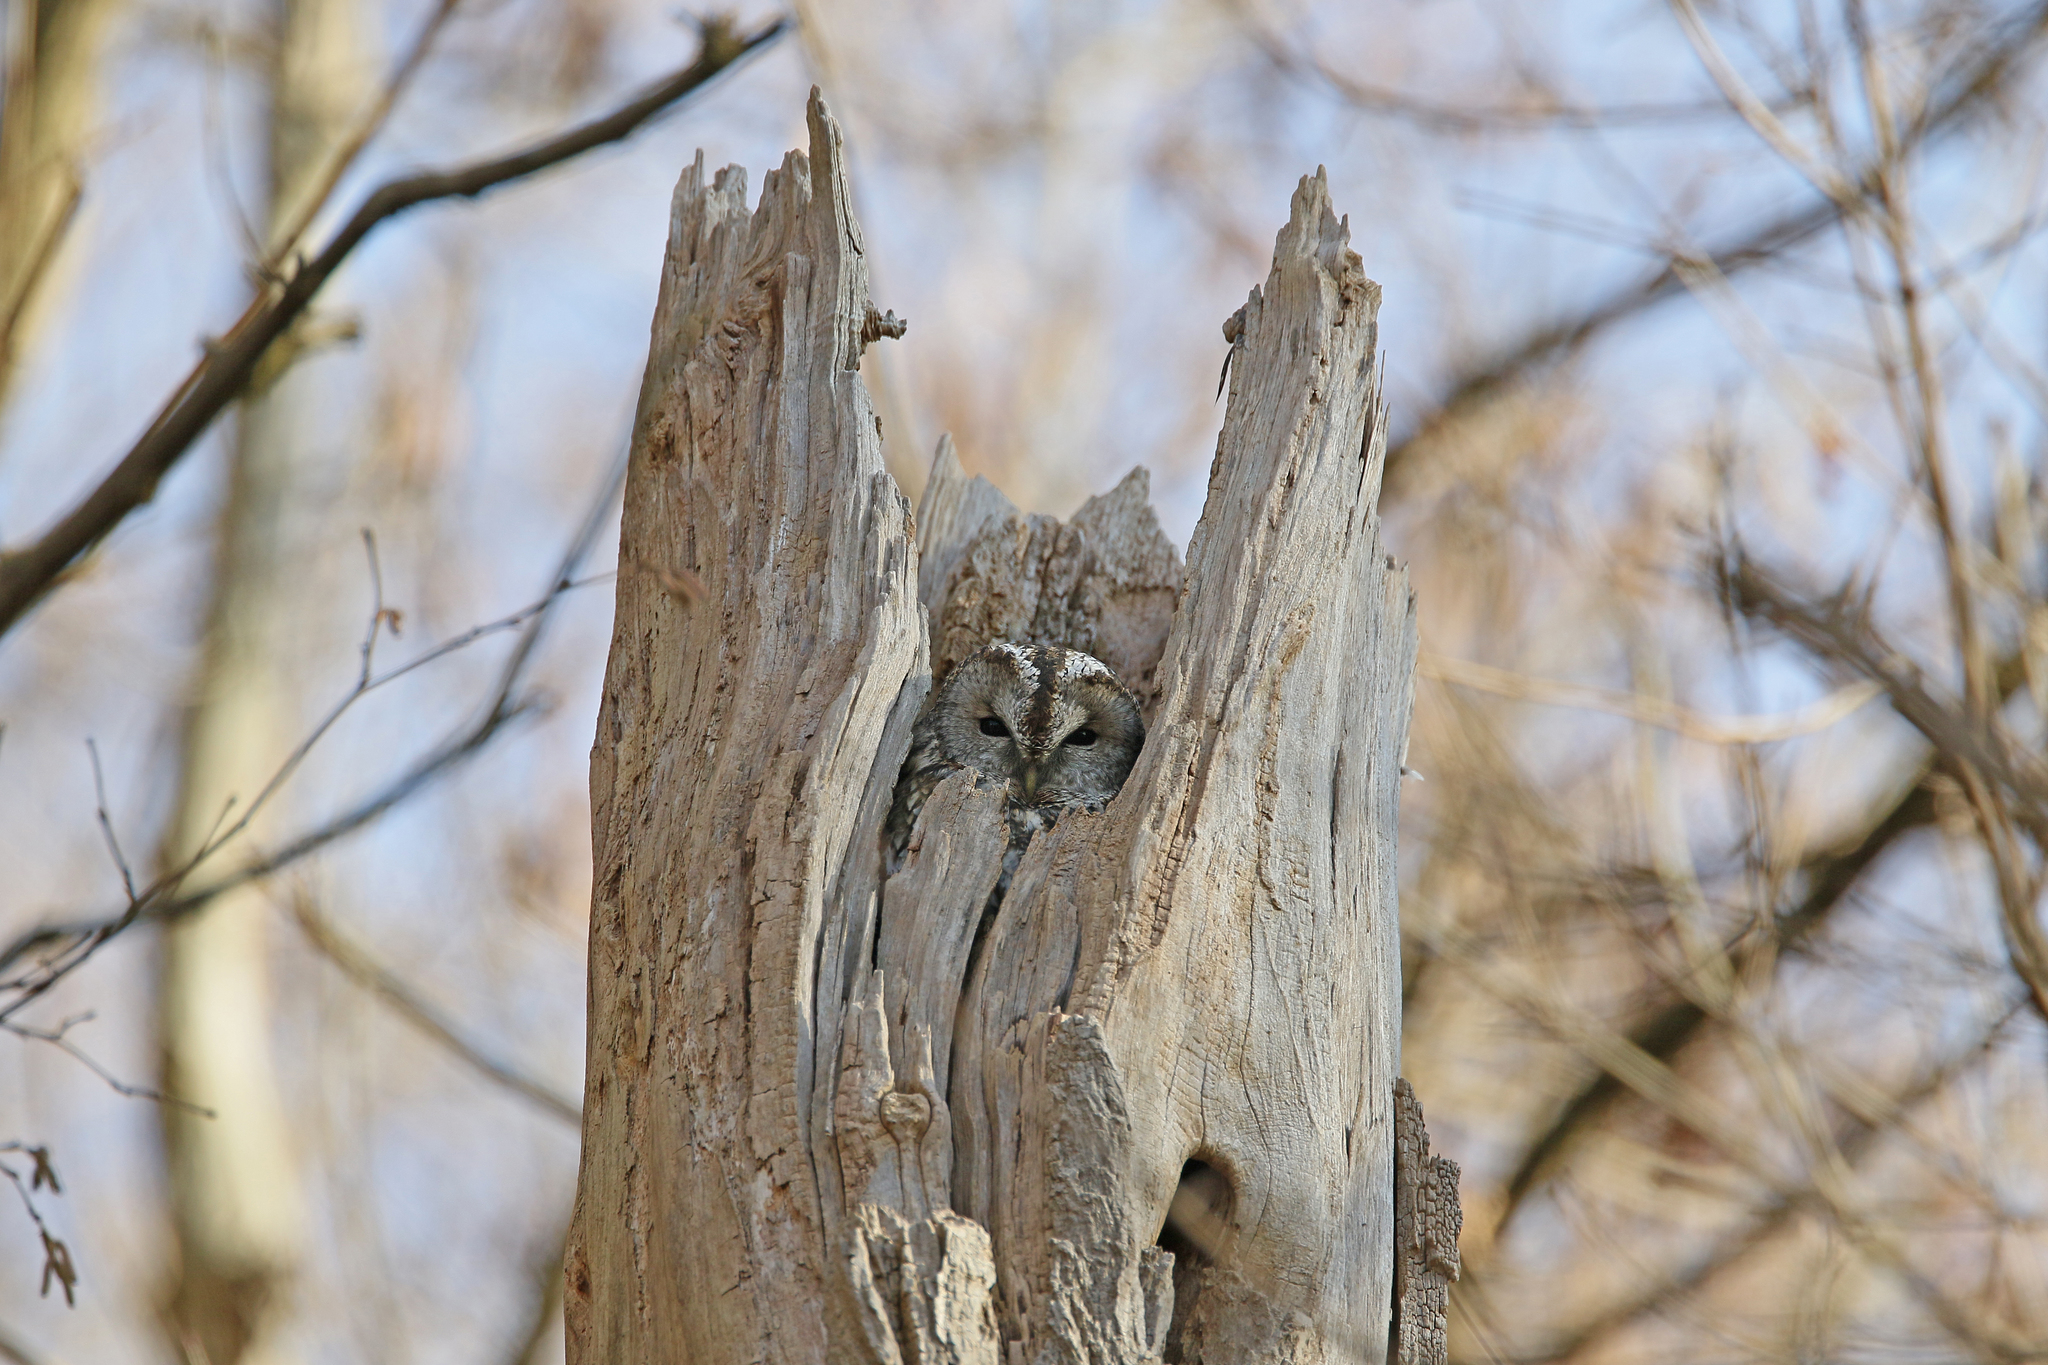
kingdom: Animalia
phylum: Chordata
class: Aves
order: Strigiformes
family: Strigidae
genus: Strix
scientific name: Strix aluco
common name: Tawny owl
